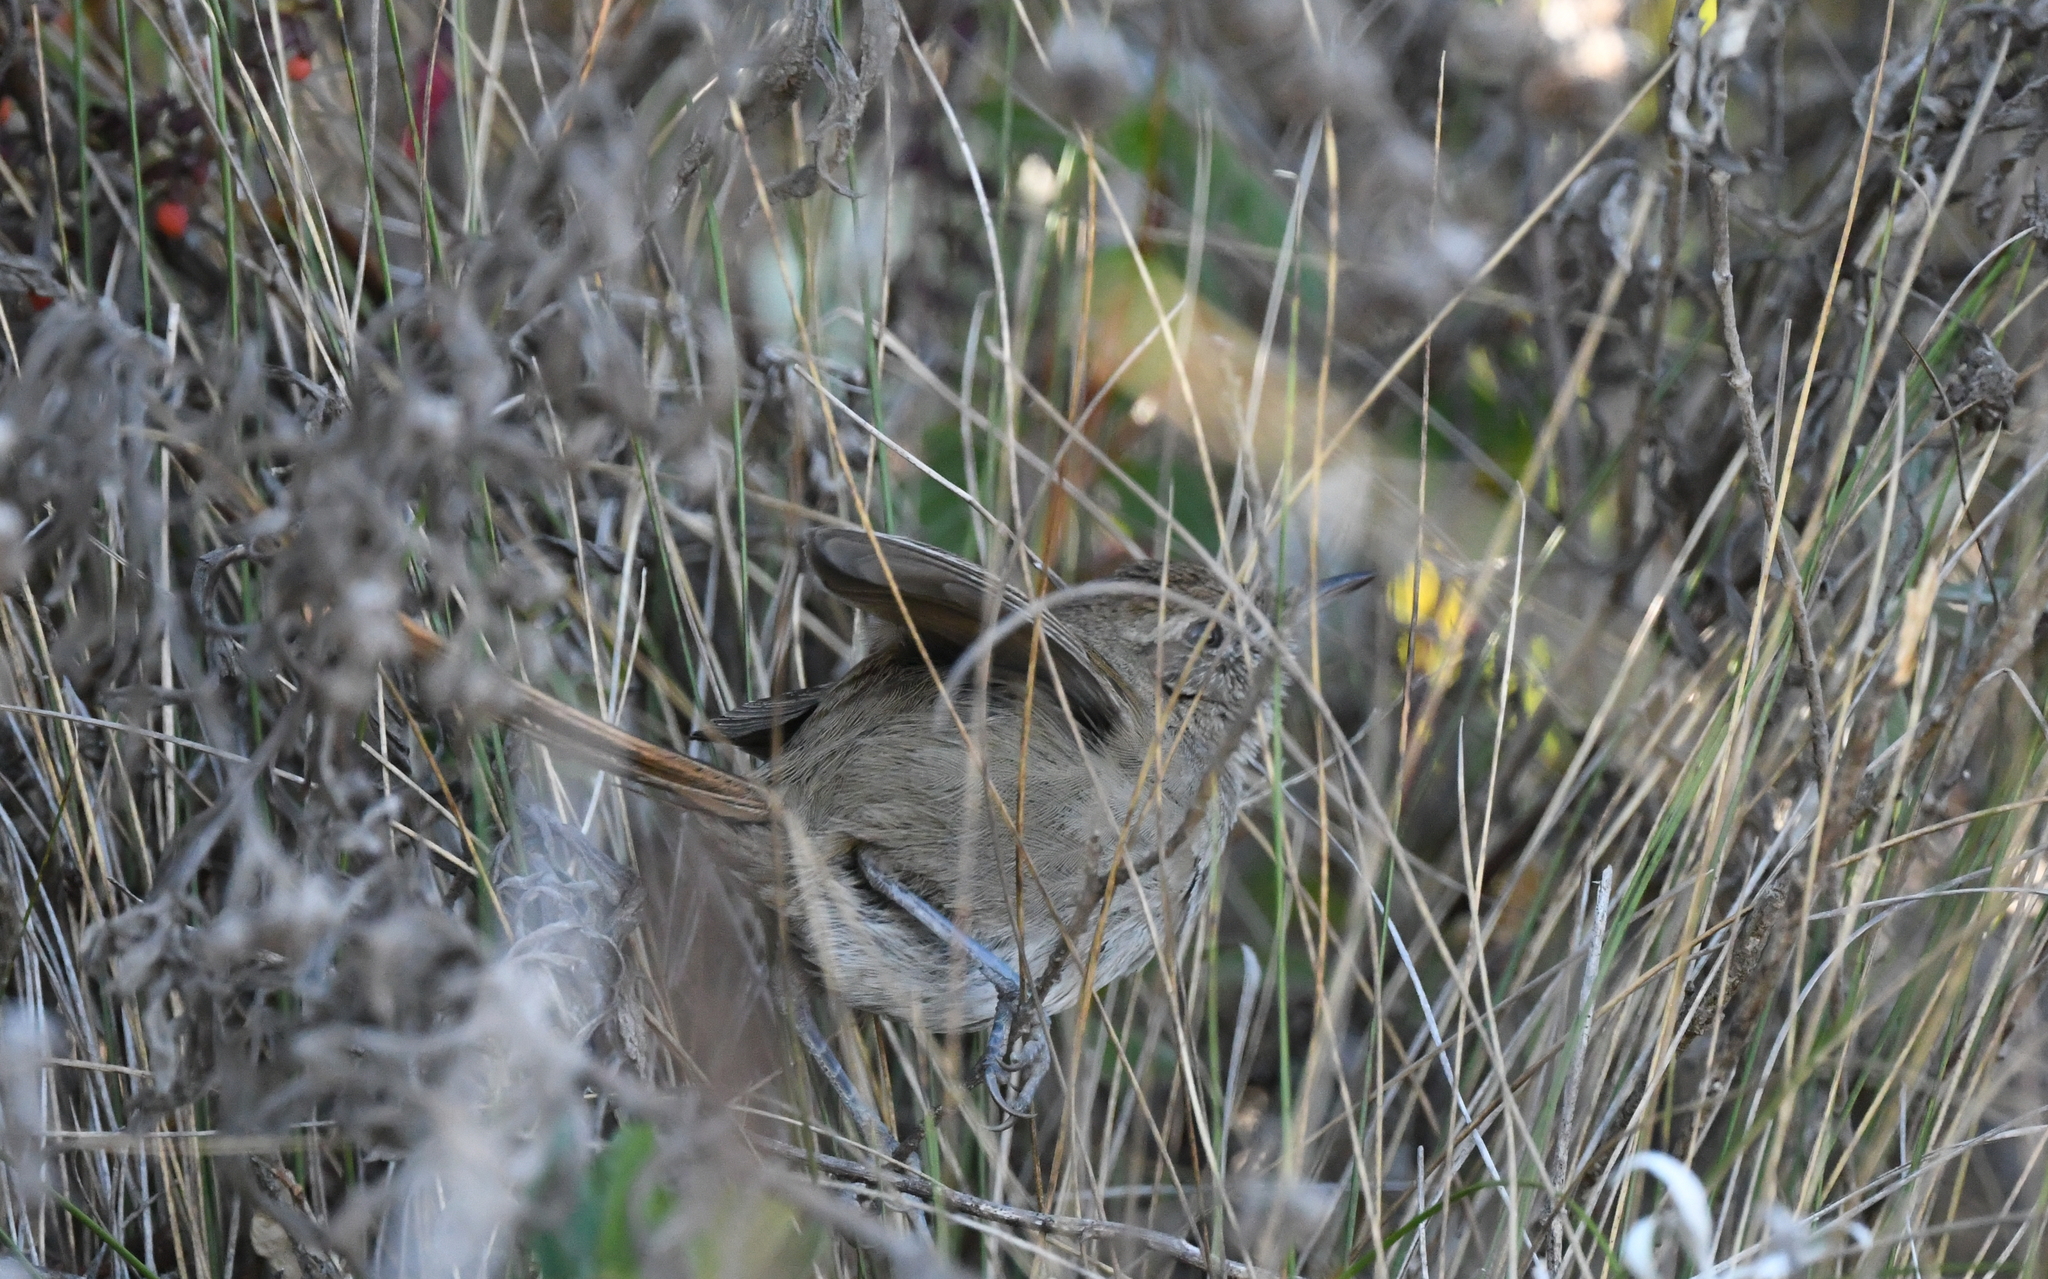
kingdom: Animalia
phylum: Chordata
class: Aves
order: Passeriformes
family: Furnariidae
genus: Asthenes
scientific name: Asthenes perijana
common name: Perija thistletail
